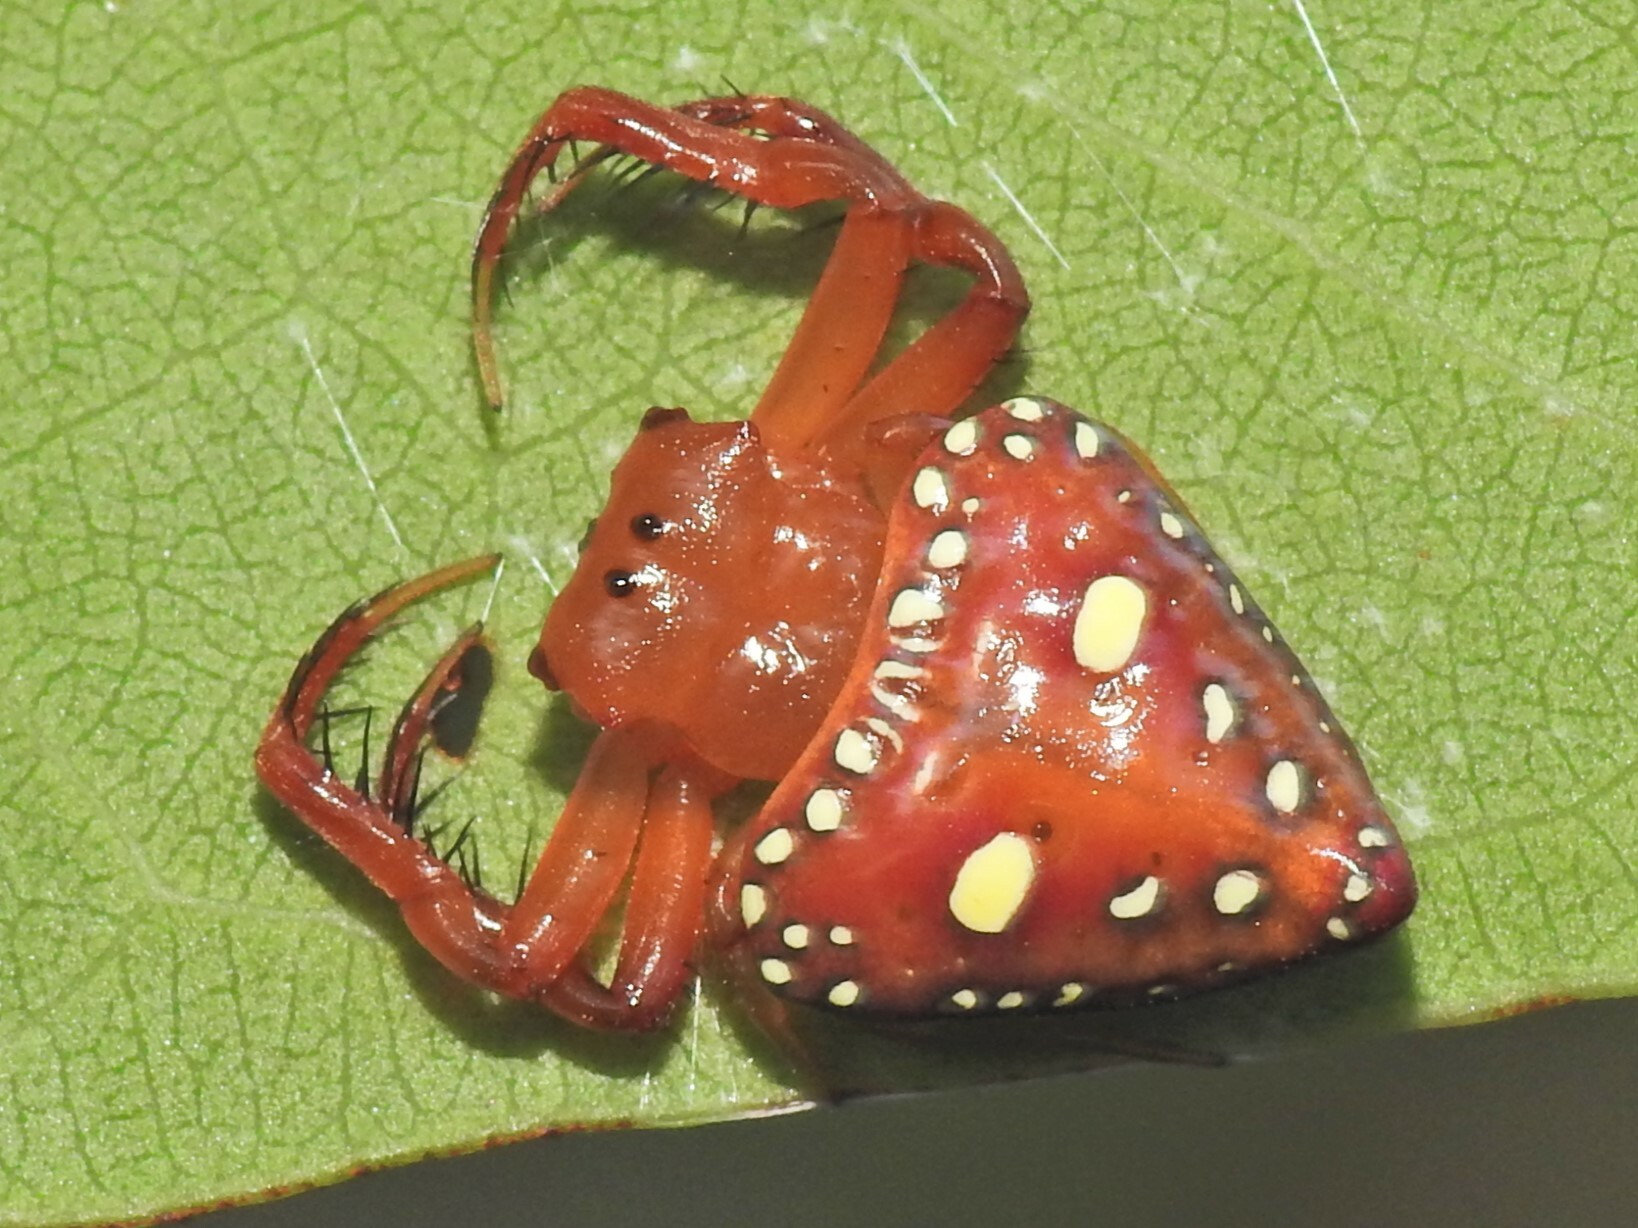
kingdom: Animalia
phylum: Arthropoda
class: Arachnida
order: Araneae
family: Arkyidae
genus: Arkys
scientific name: Arkys lancearius
